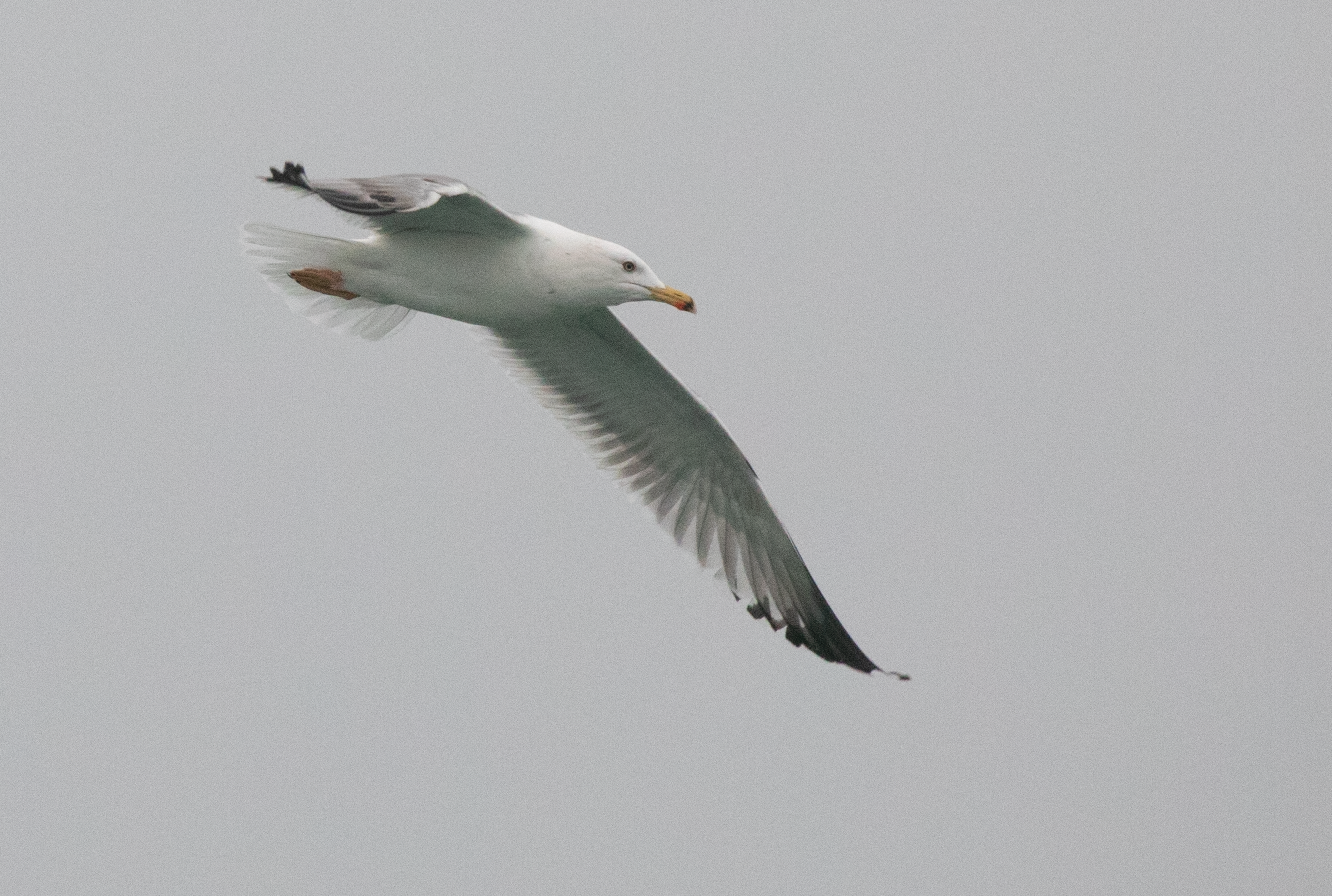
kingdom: Animalia
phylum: Chordata
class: Aves
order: Charadriiformes
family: Laridae
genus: Larus
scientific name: Larus michahellis
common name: Yellow-legged gull
